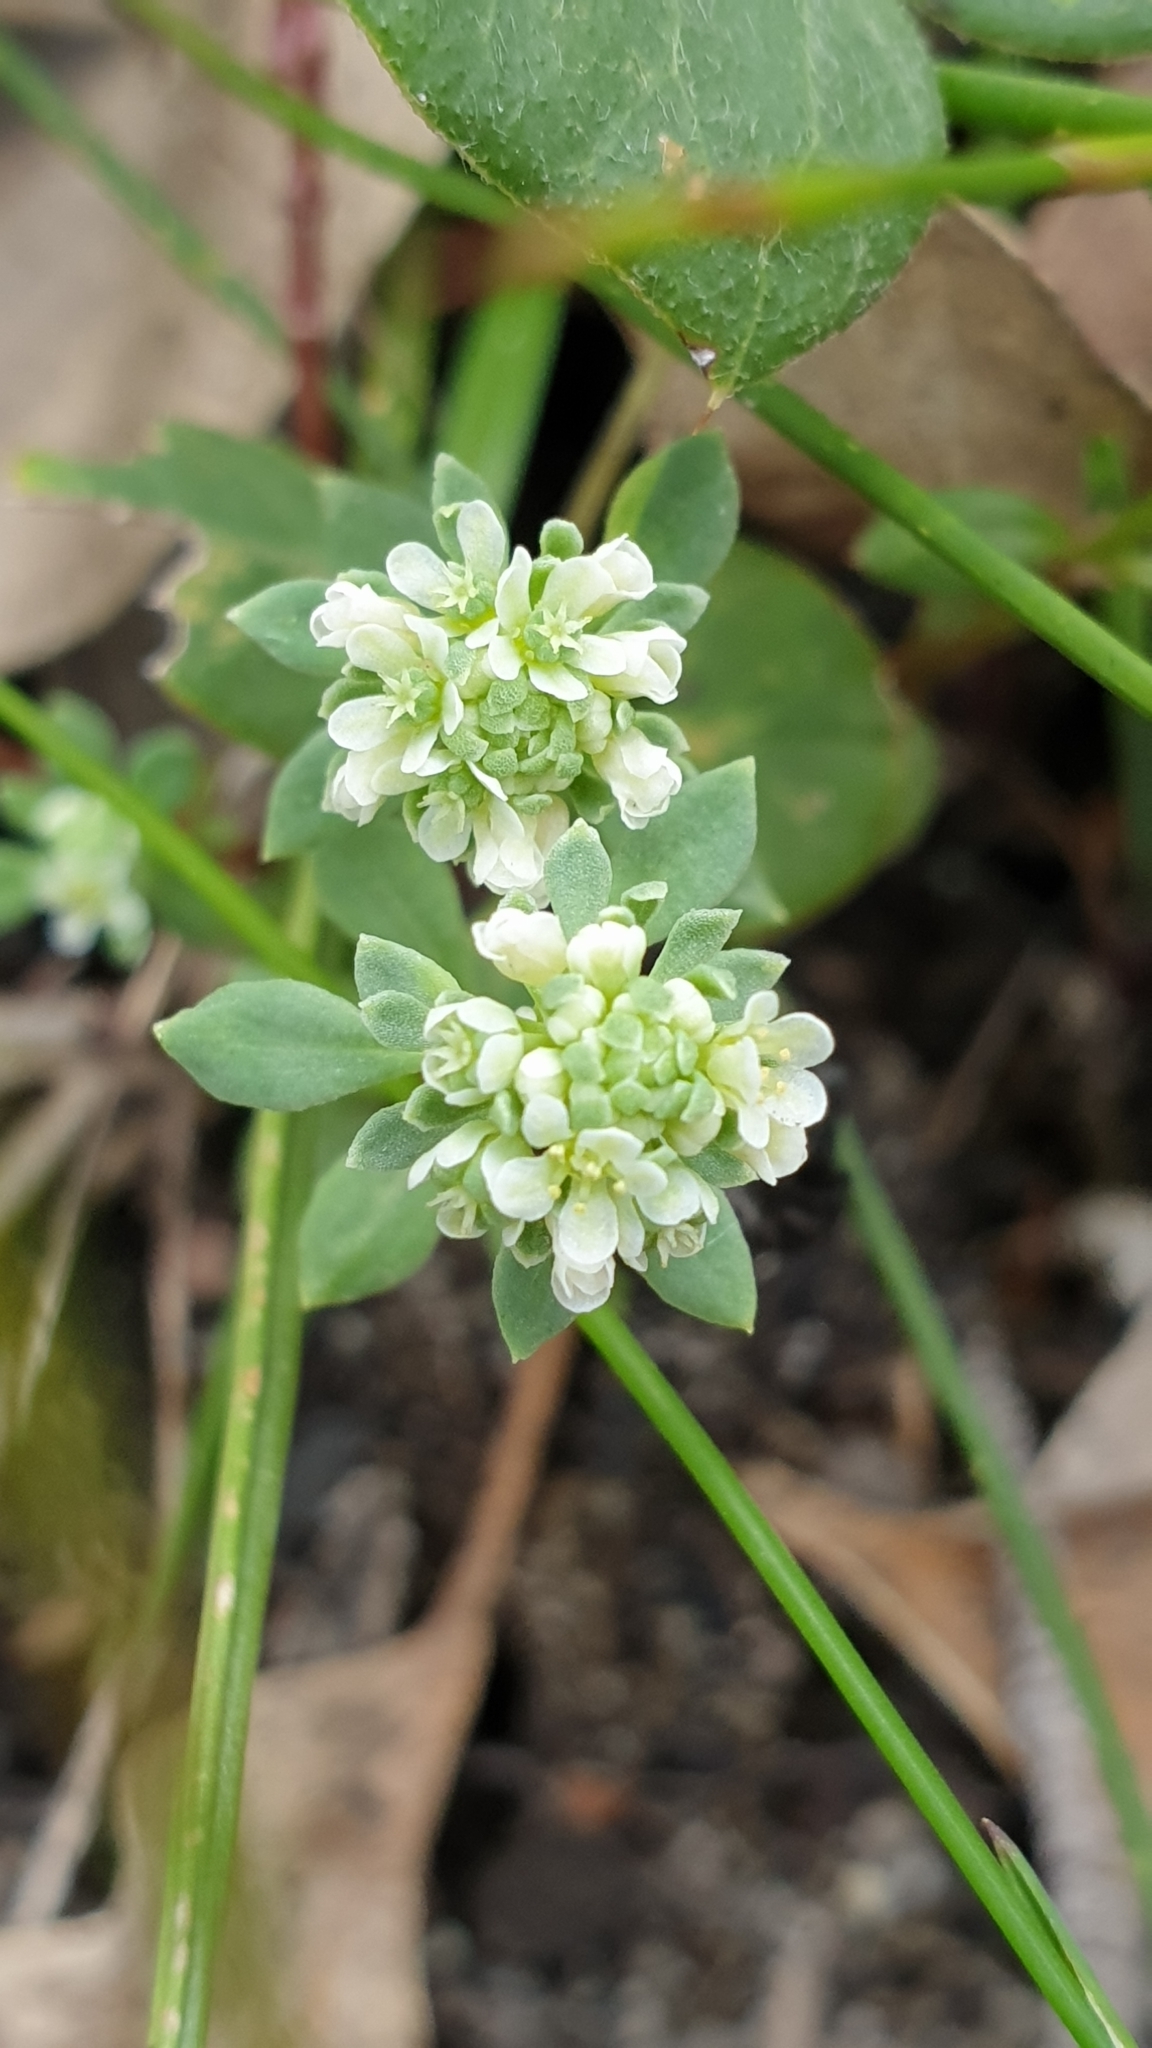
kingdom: Plantae
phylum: Tracheophyta
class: Magnoliopsida
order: Malpighiales
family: Phyllanthaceae
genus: Poranthera
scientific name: Poranthera microphylla
